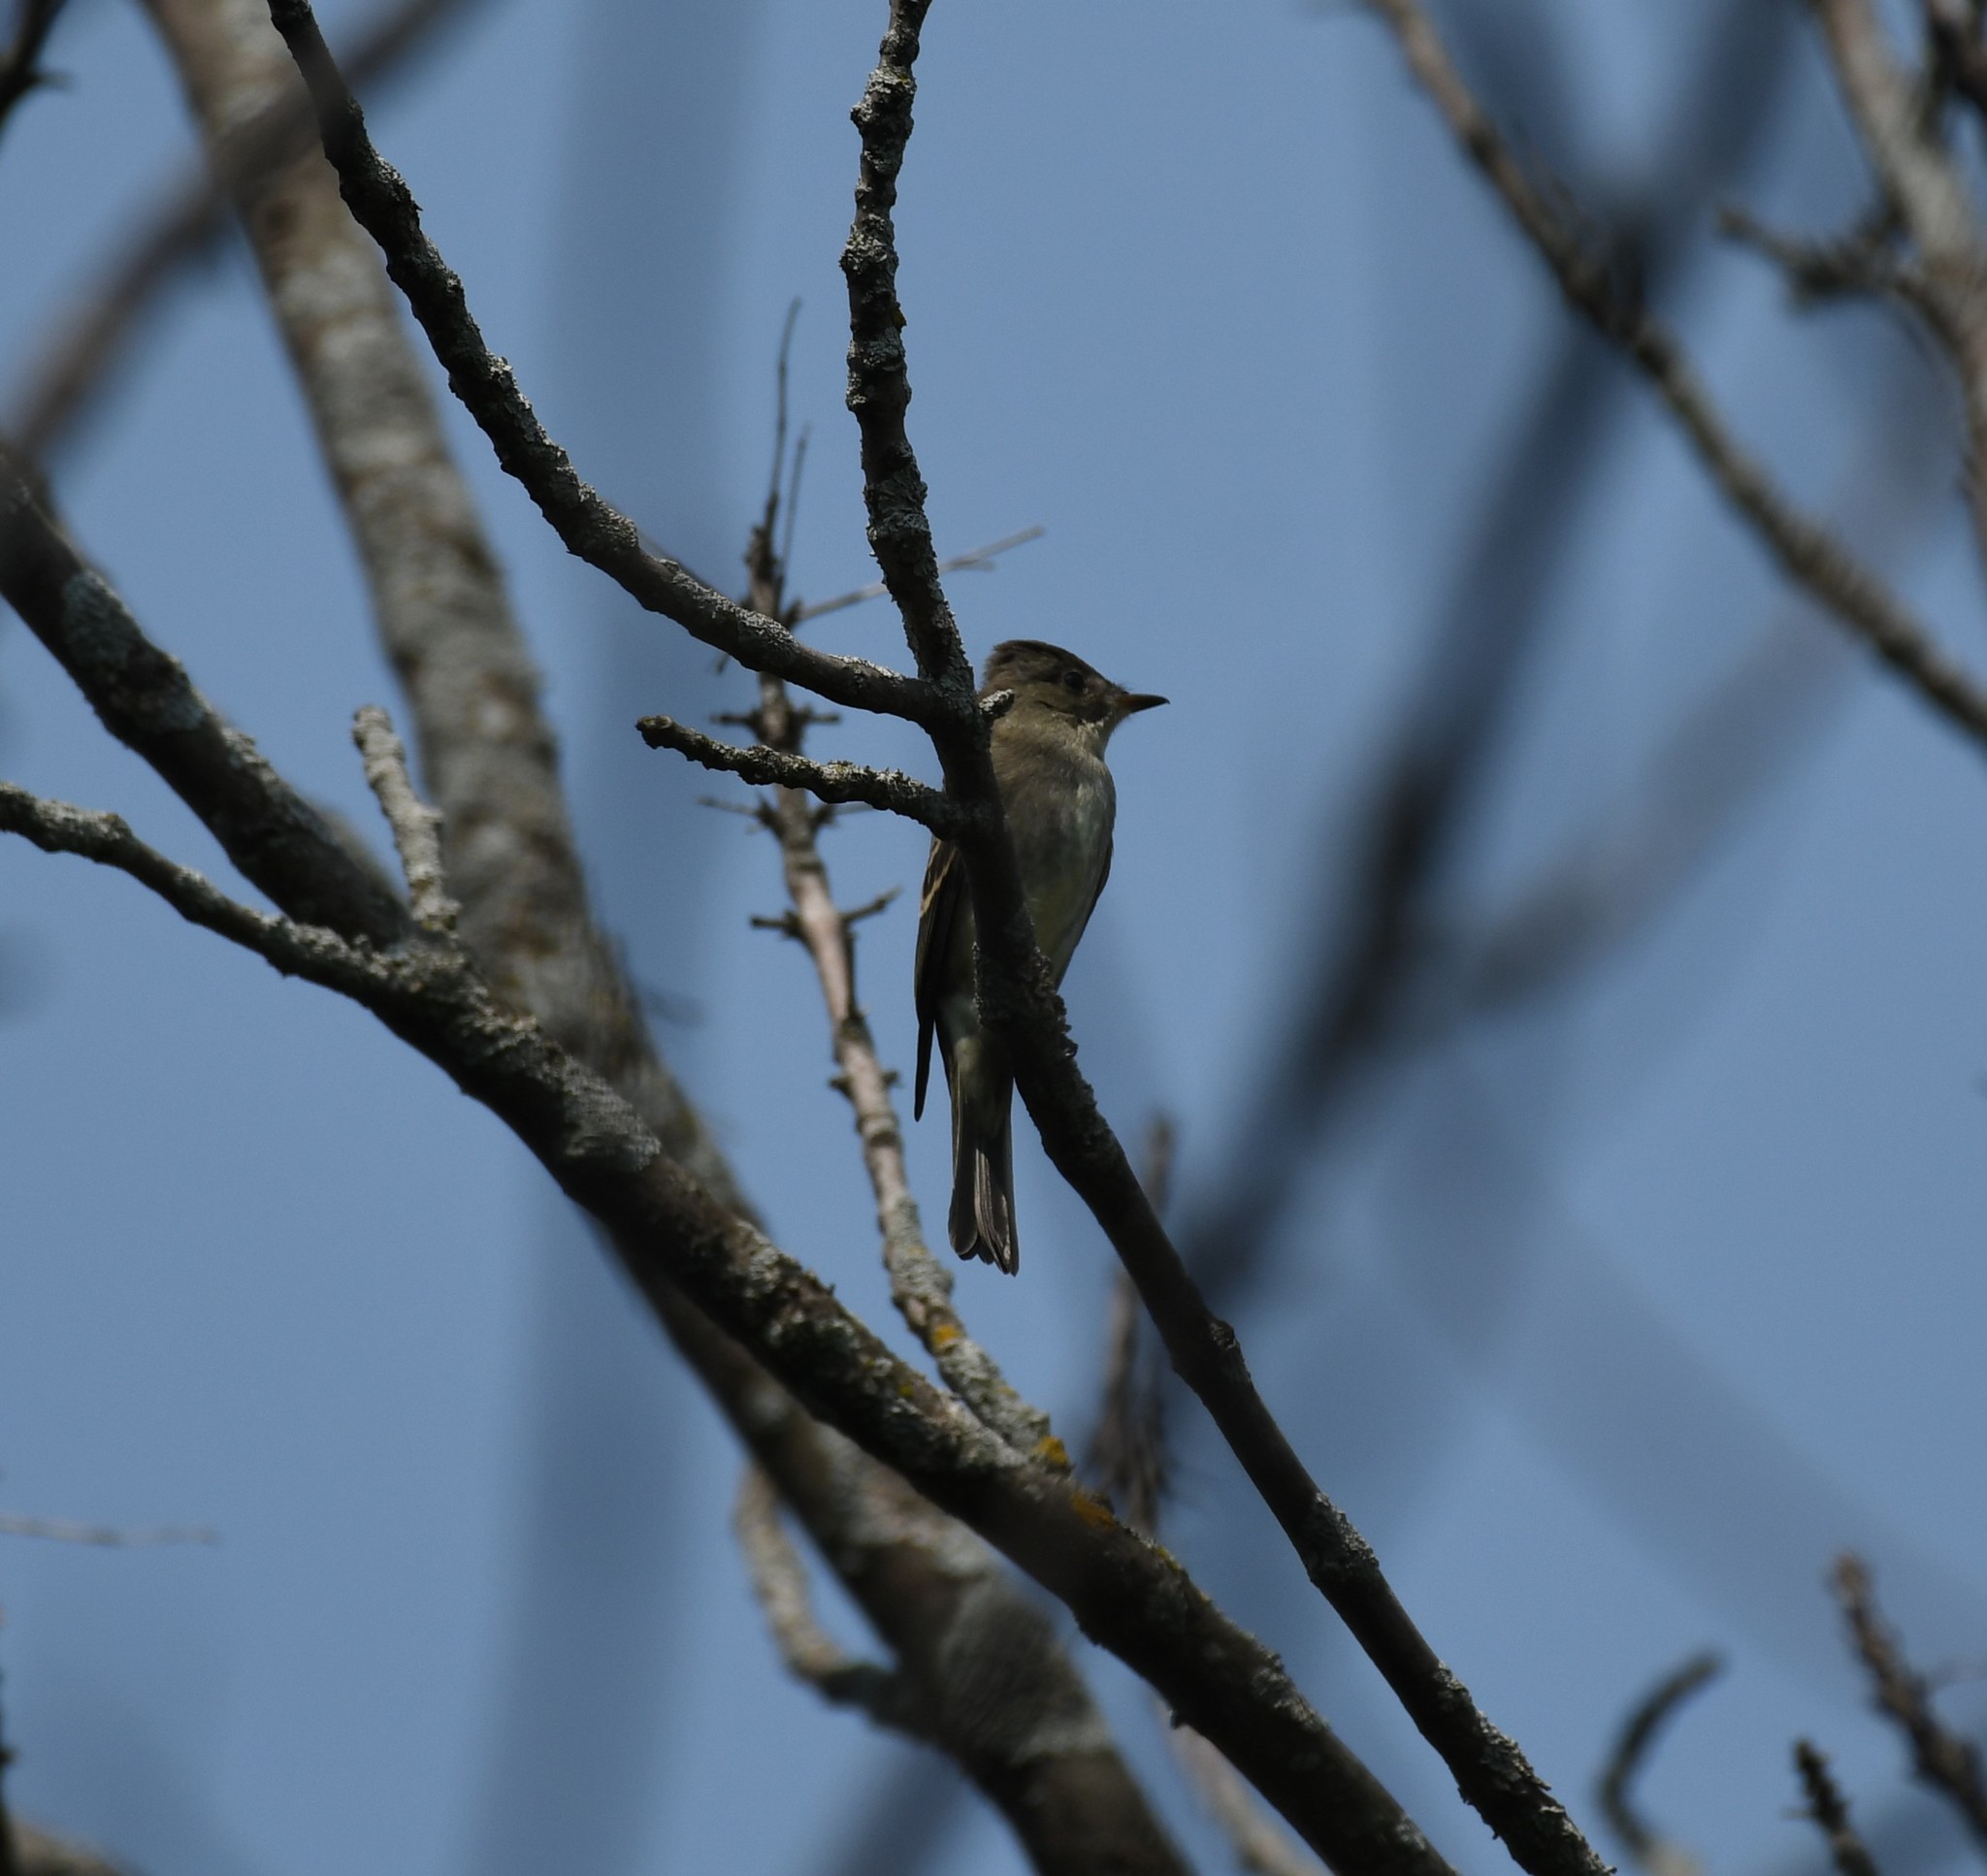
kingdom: Animalia
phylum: Chordata
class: Aves
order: Passeriformes
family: Tyrannidae
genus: Contopus
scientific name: Contopus virens
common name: Eastern wood-pewee
